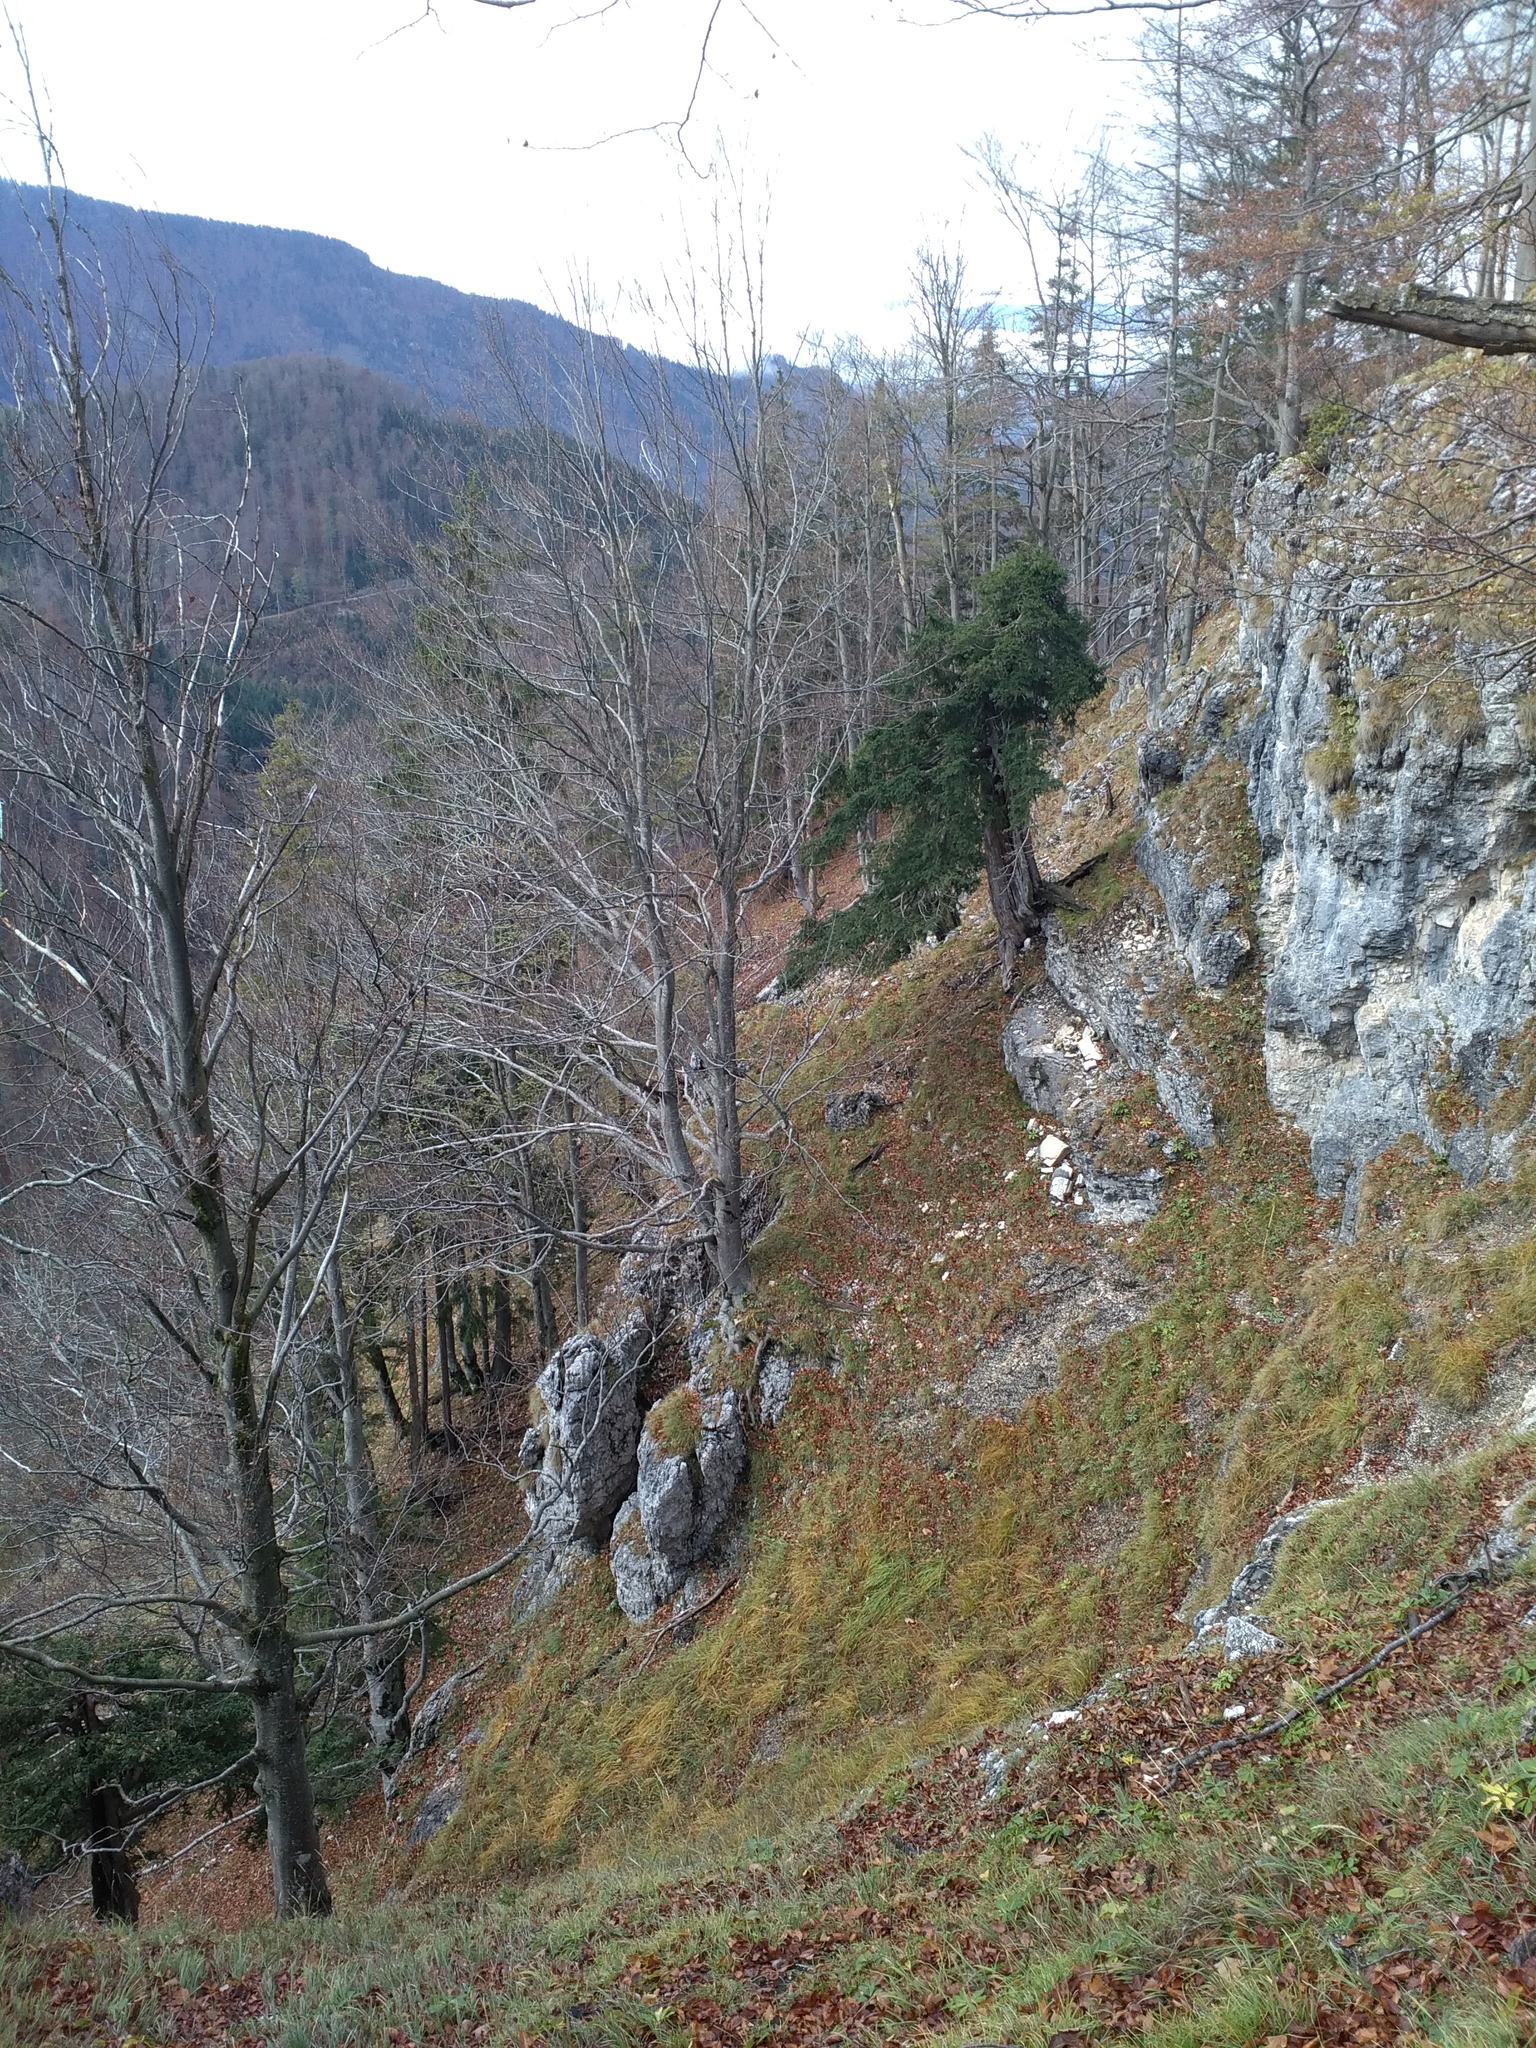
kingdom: Plantae
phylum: Tracheophyta
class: Pinopsida
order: Pinales
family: Taxaceae
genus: Taxus
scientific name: Taxus baccata
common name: Yew
